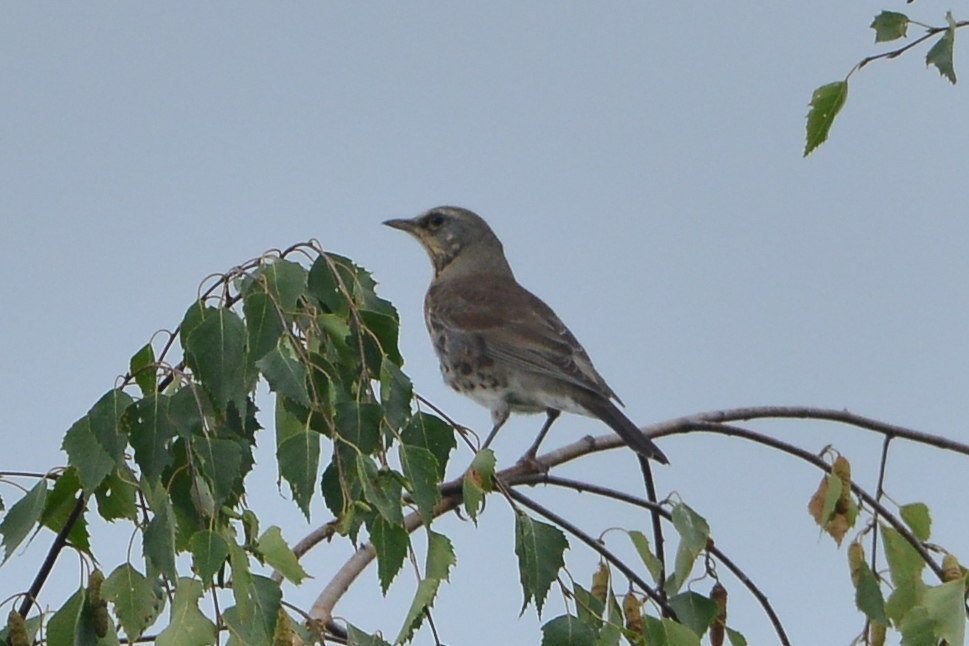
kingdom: Animalia
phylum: Chordata
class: Aves
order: Passeriformes
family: Turdidae
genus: Turdus
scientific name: Turdus pilaris
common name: Fieldfare
